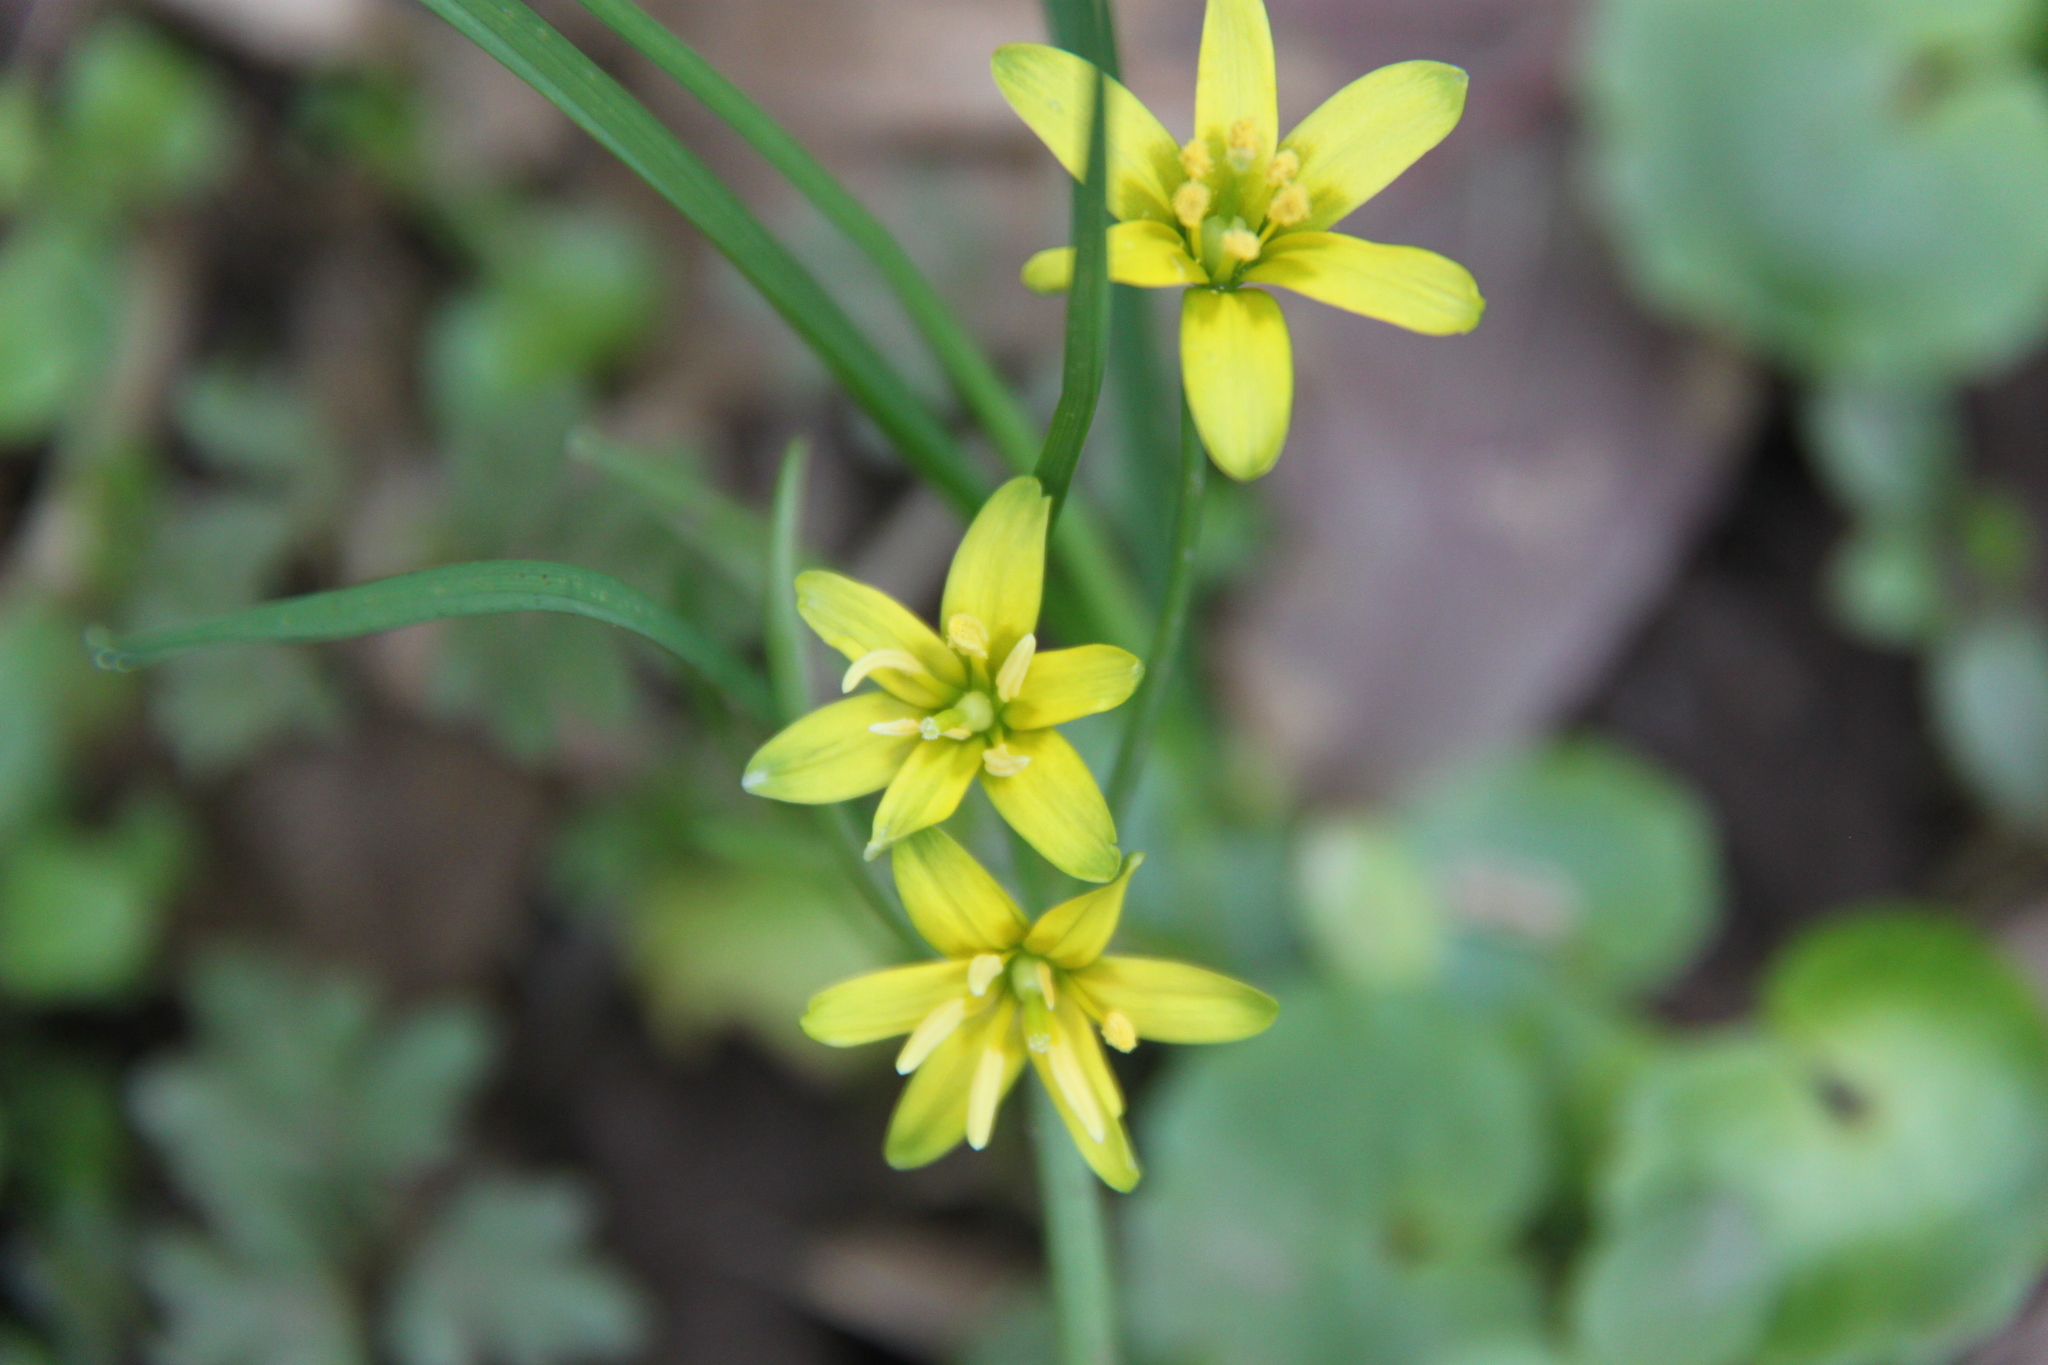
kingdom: Plantae
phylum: Tracheophyta
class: Liliopsida
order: Liliales
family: Liliaceae
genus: Gagea
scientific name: Gagea lutea
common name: Yellow star-of-bethlehem
